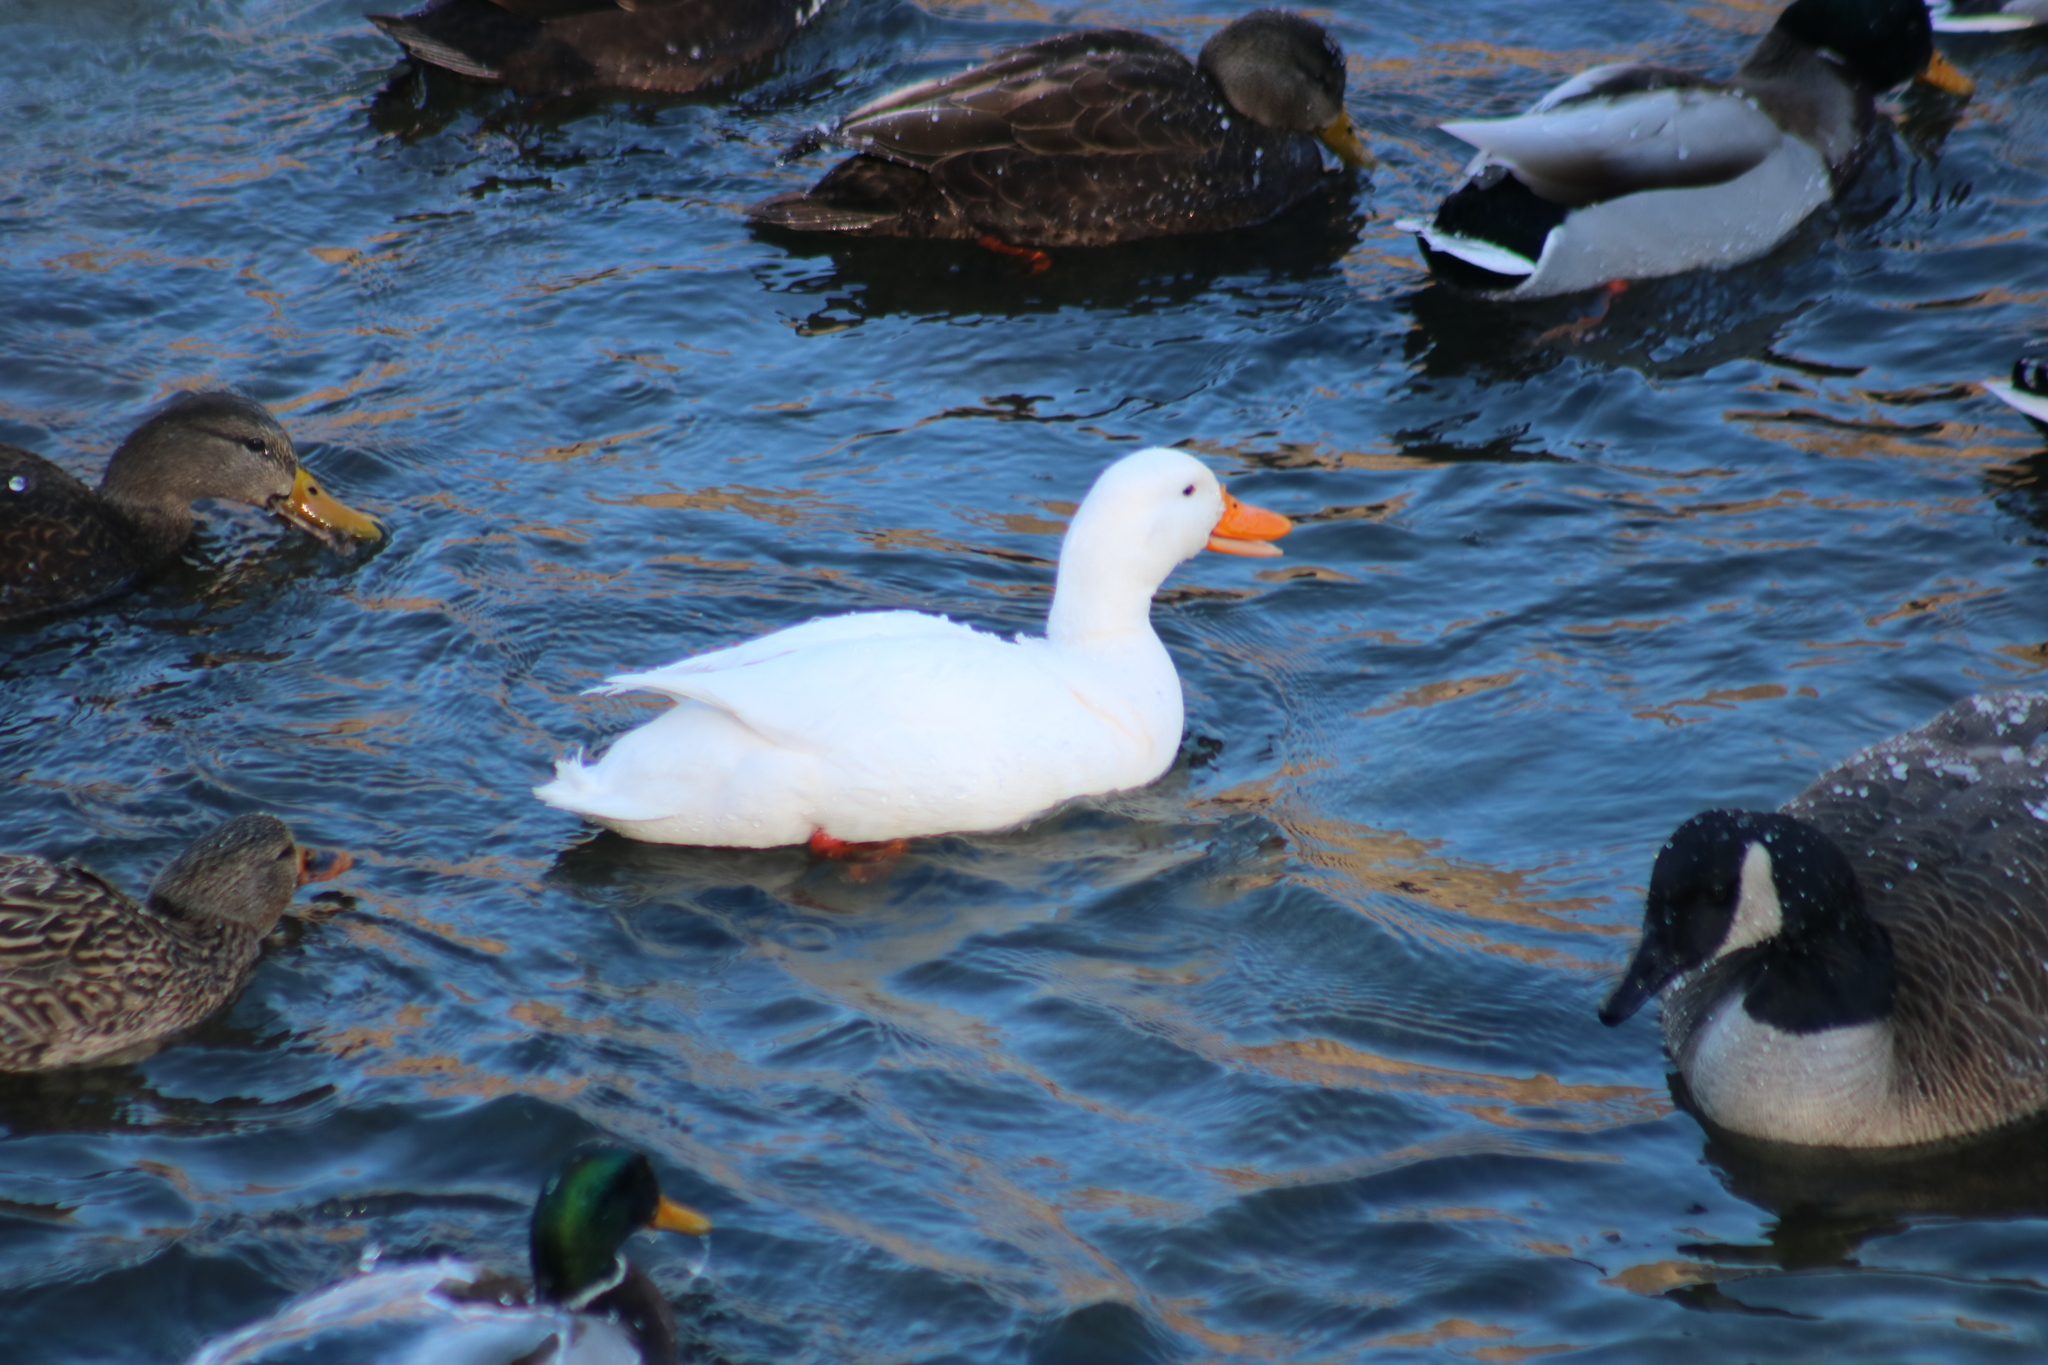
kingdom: Animalia
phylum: Chordata
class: Aves
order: Anseriformes
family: Anatidae
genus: Anas
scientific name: Anas platyrhynchos
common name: Mallard
